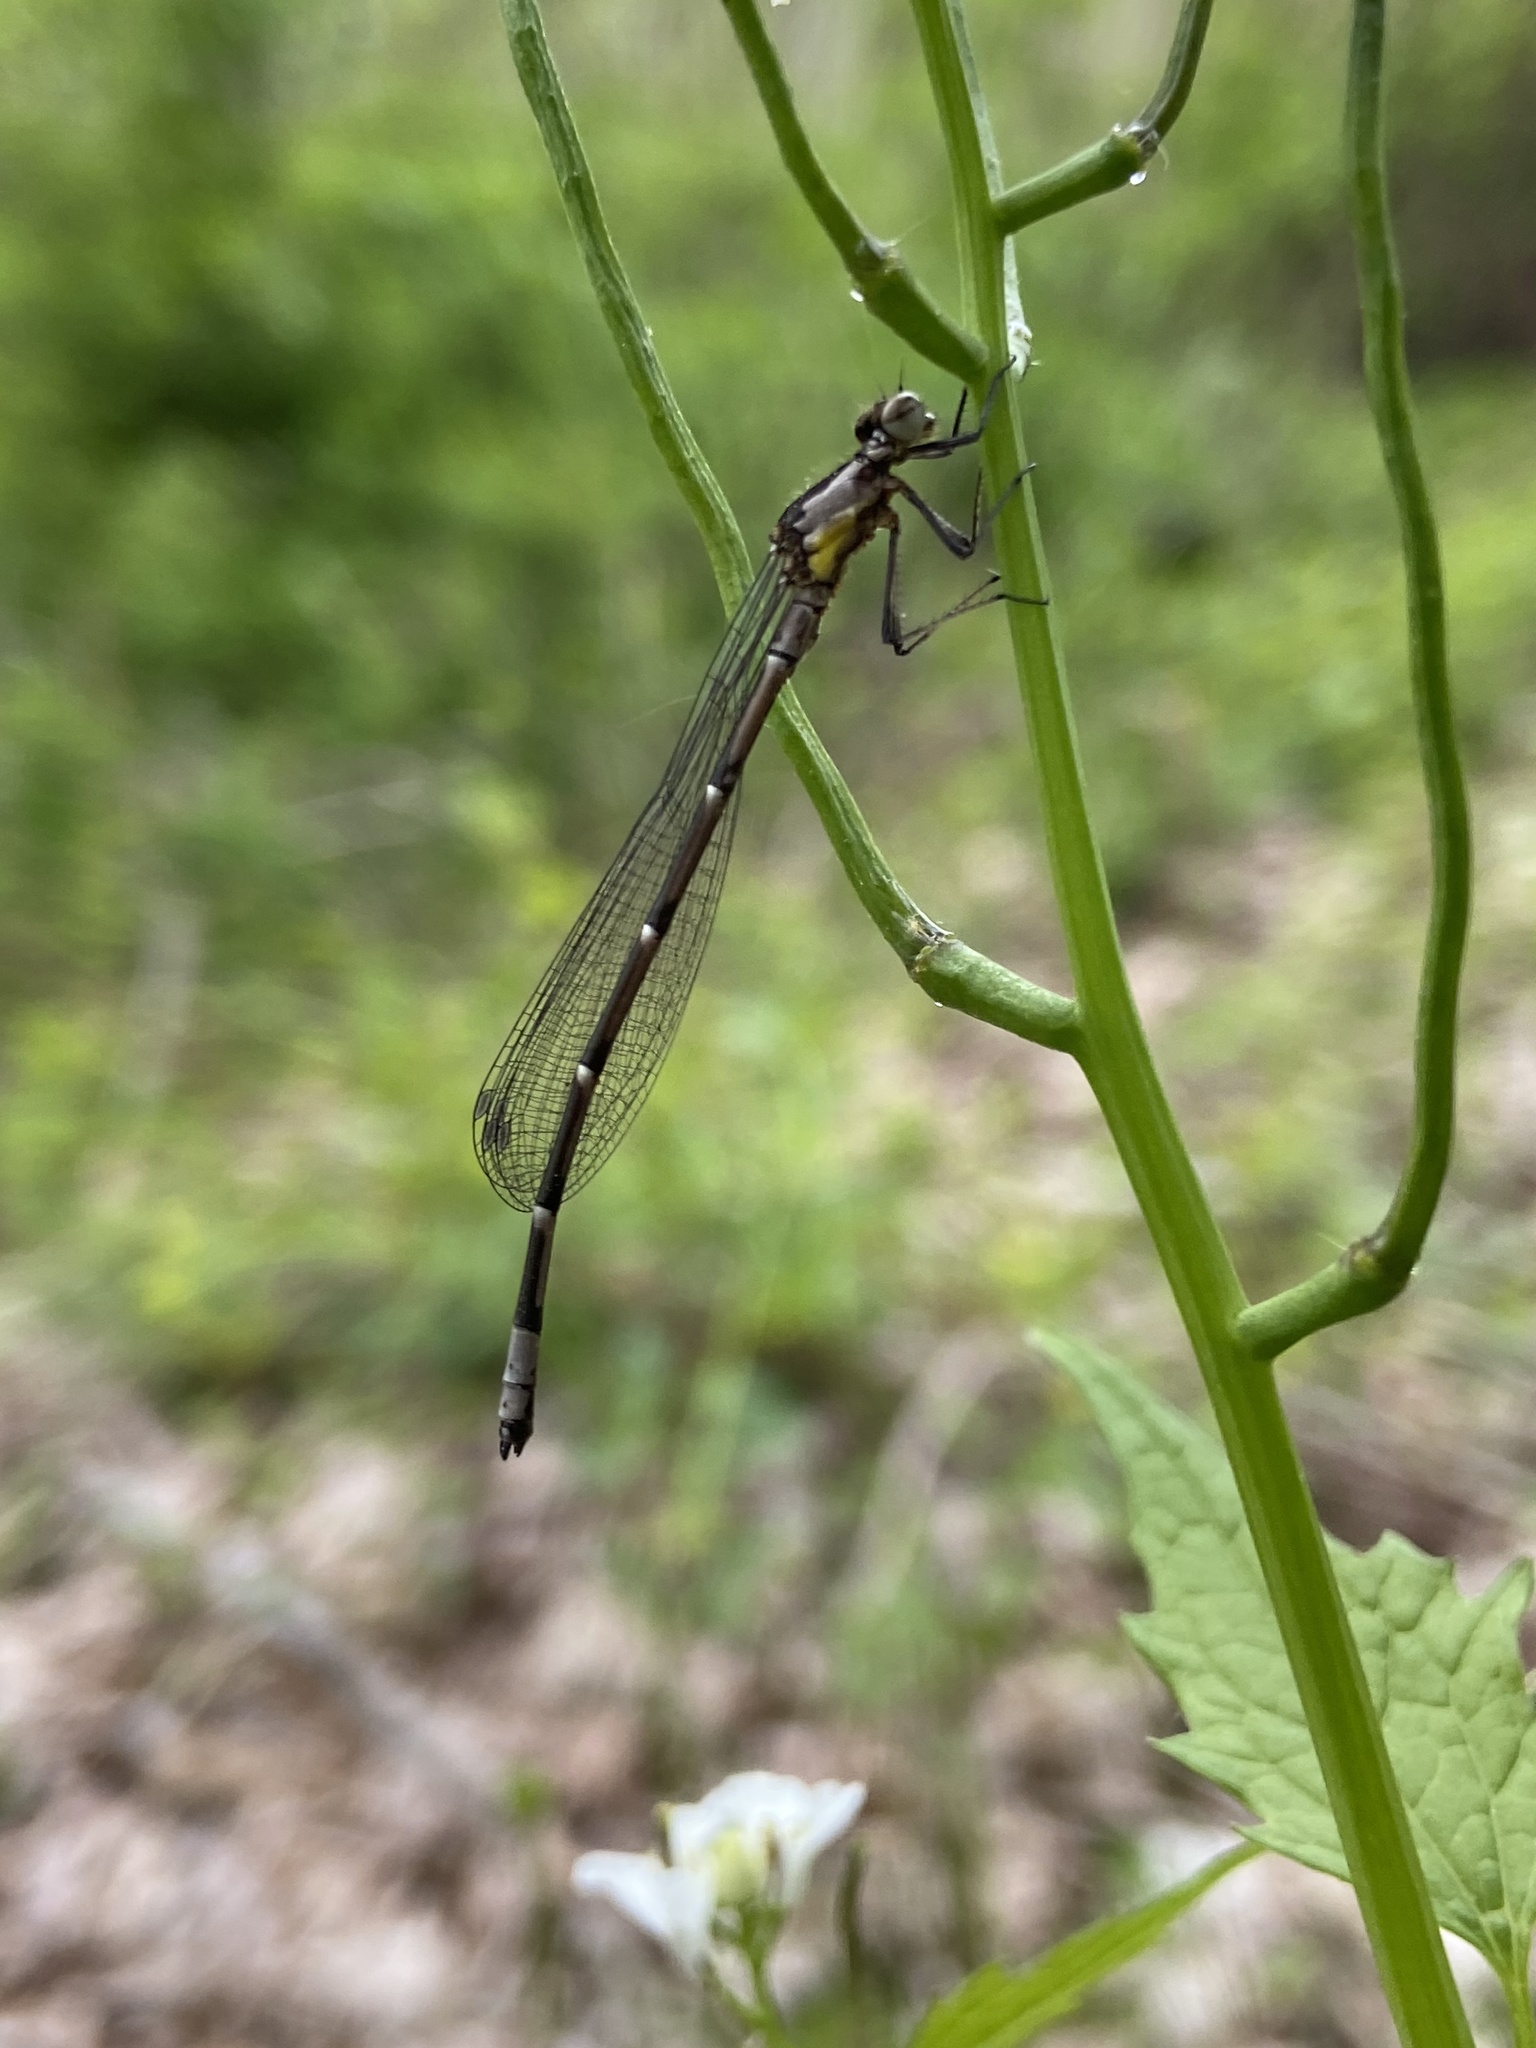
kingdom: Animalia
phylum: Arthropoda
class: Insecta
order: Odonata
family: Coenagrionidae
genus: Chromagrion
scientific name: Chromagrion conditum
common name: Aurora damsel
